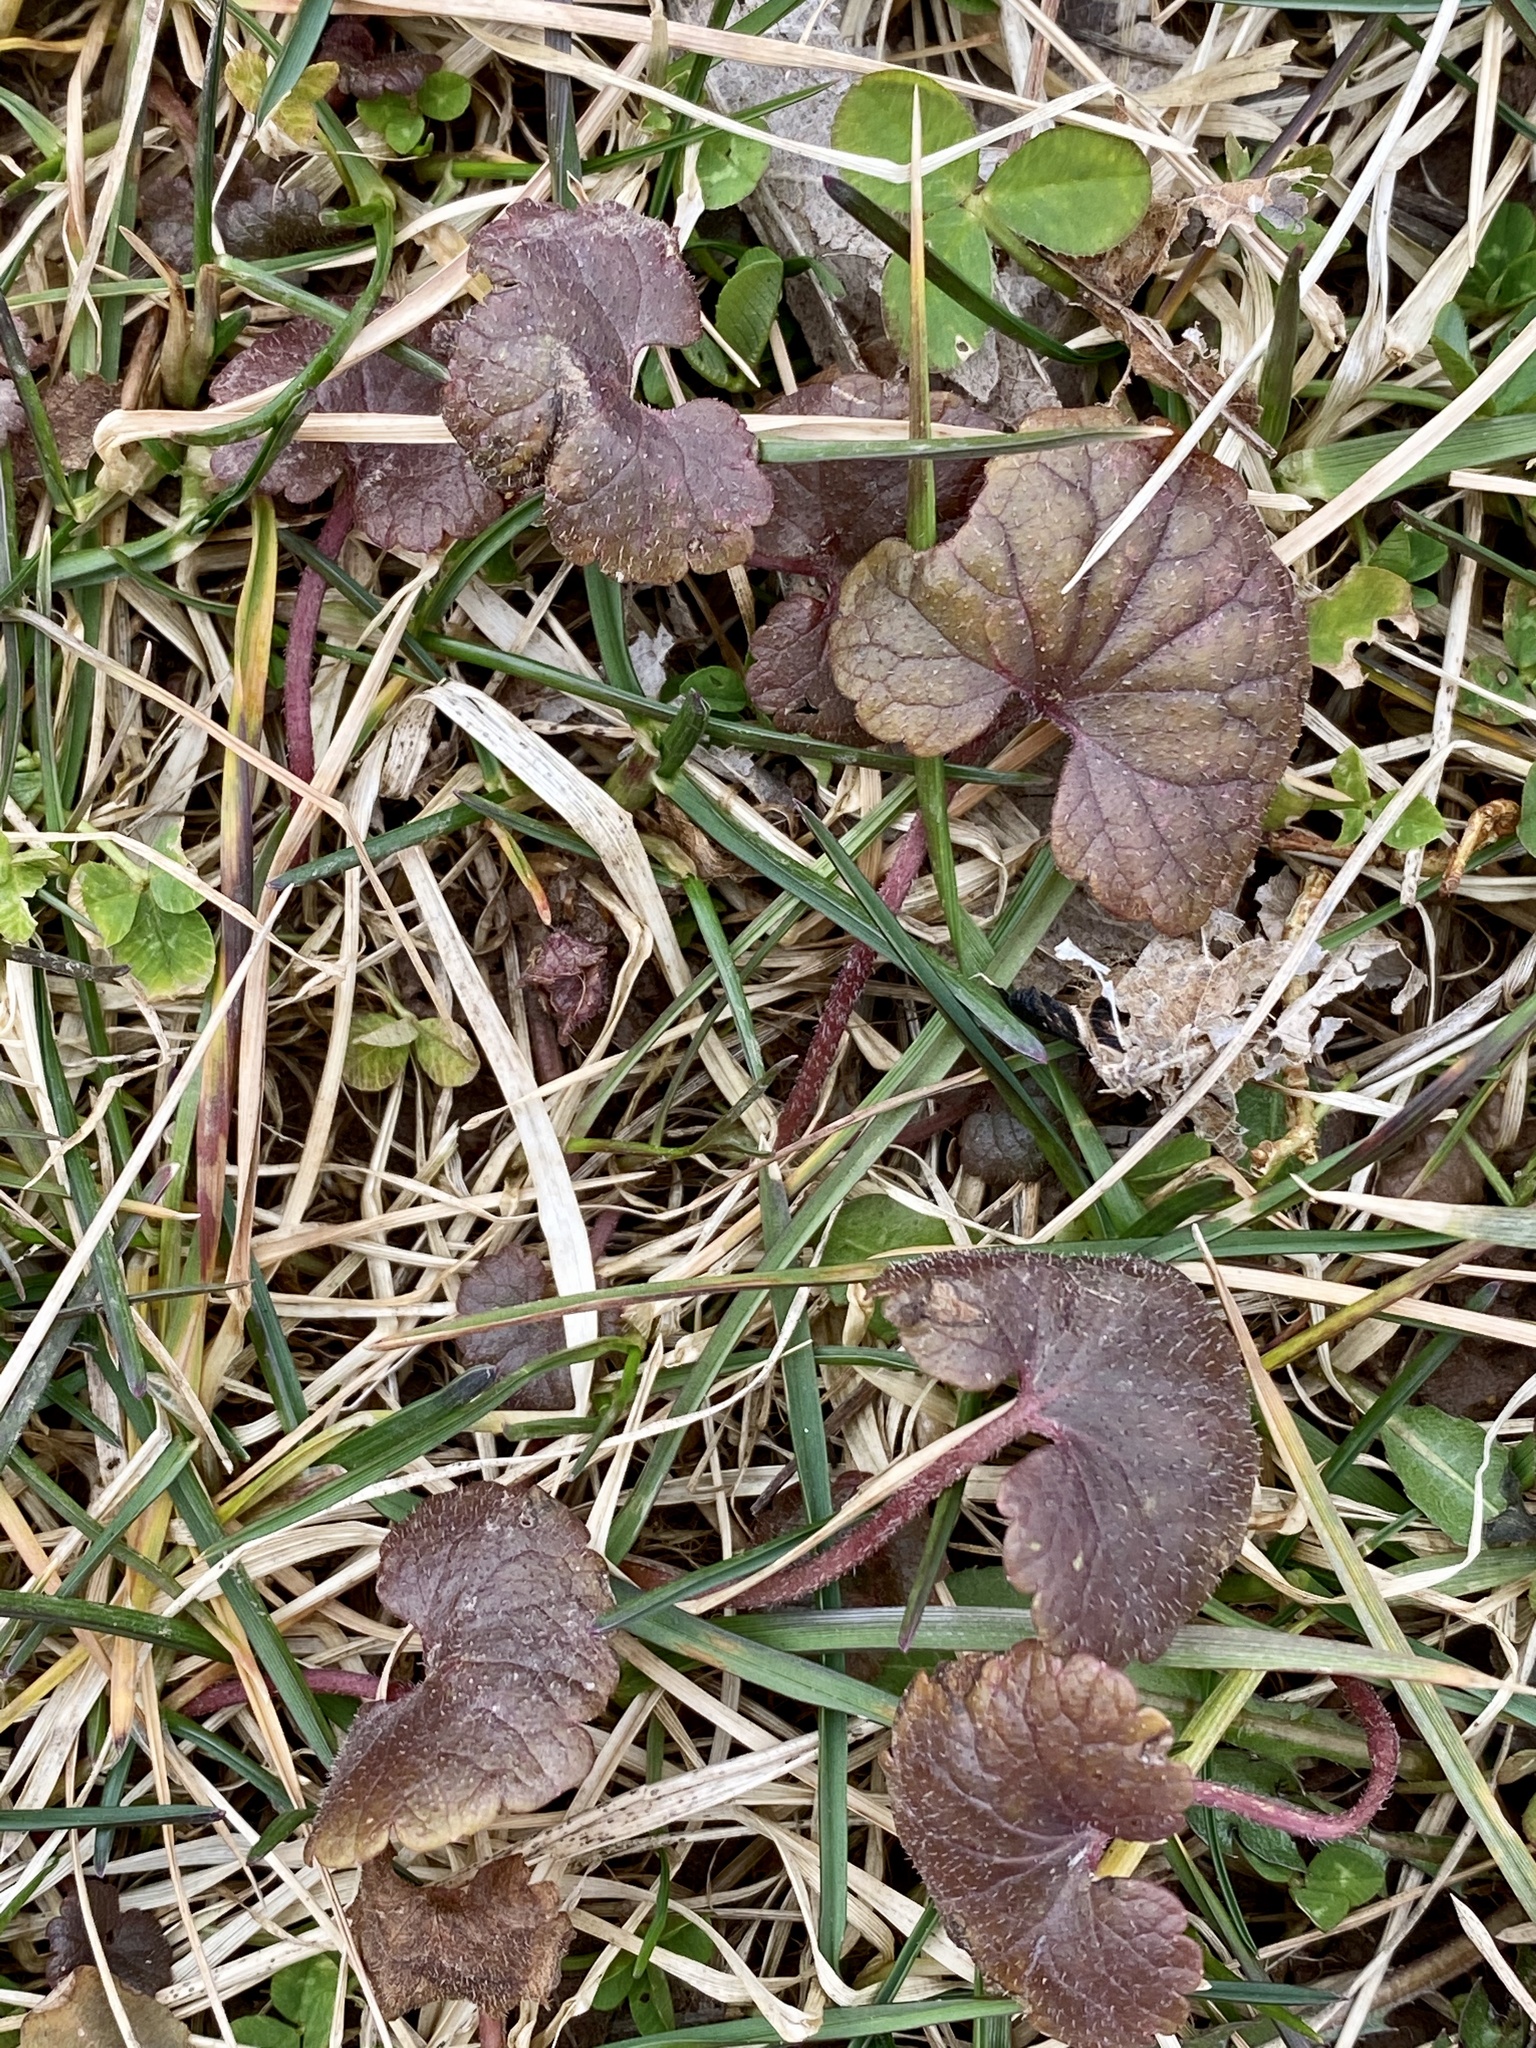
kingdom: Plantae
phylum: Tracheophyta
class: Magnoliopsida
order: Lamiales
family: Lamiaceae
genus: Glechoma
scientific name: Glechoma hederacea
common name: Ground ivy
